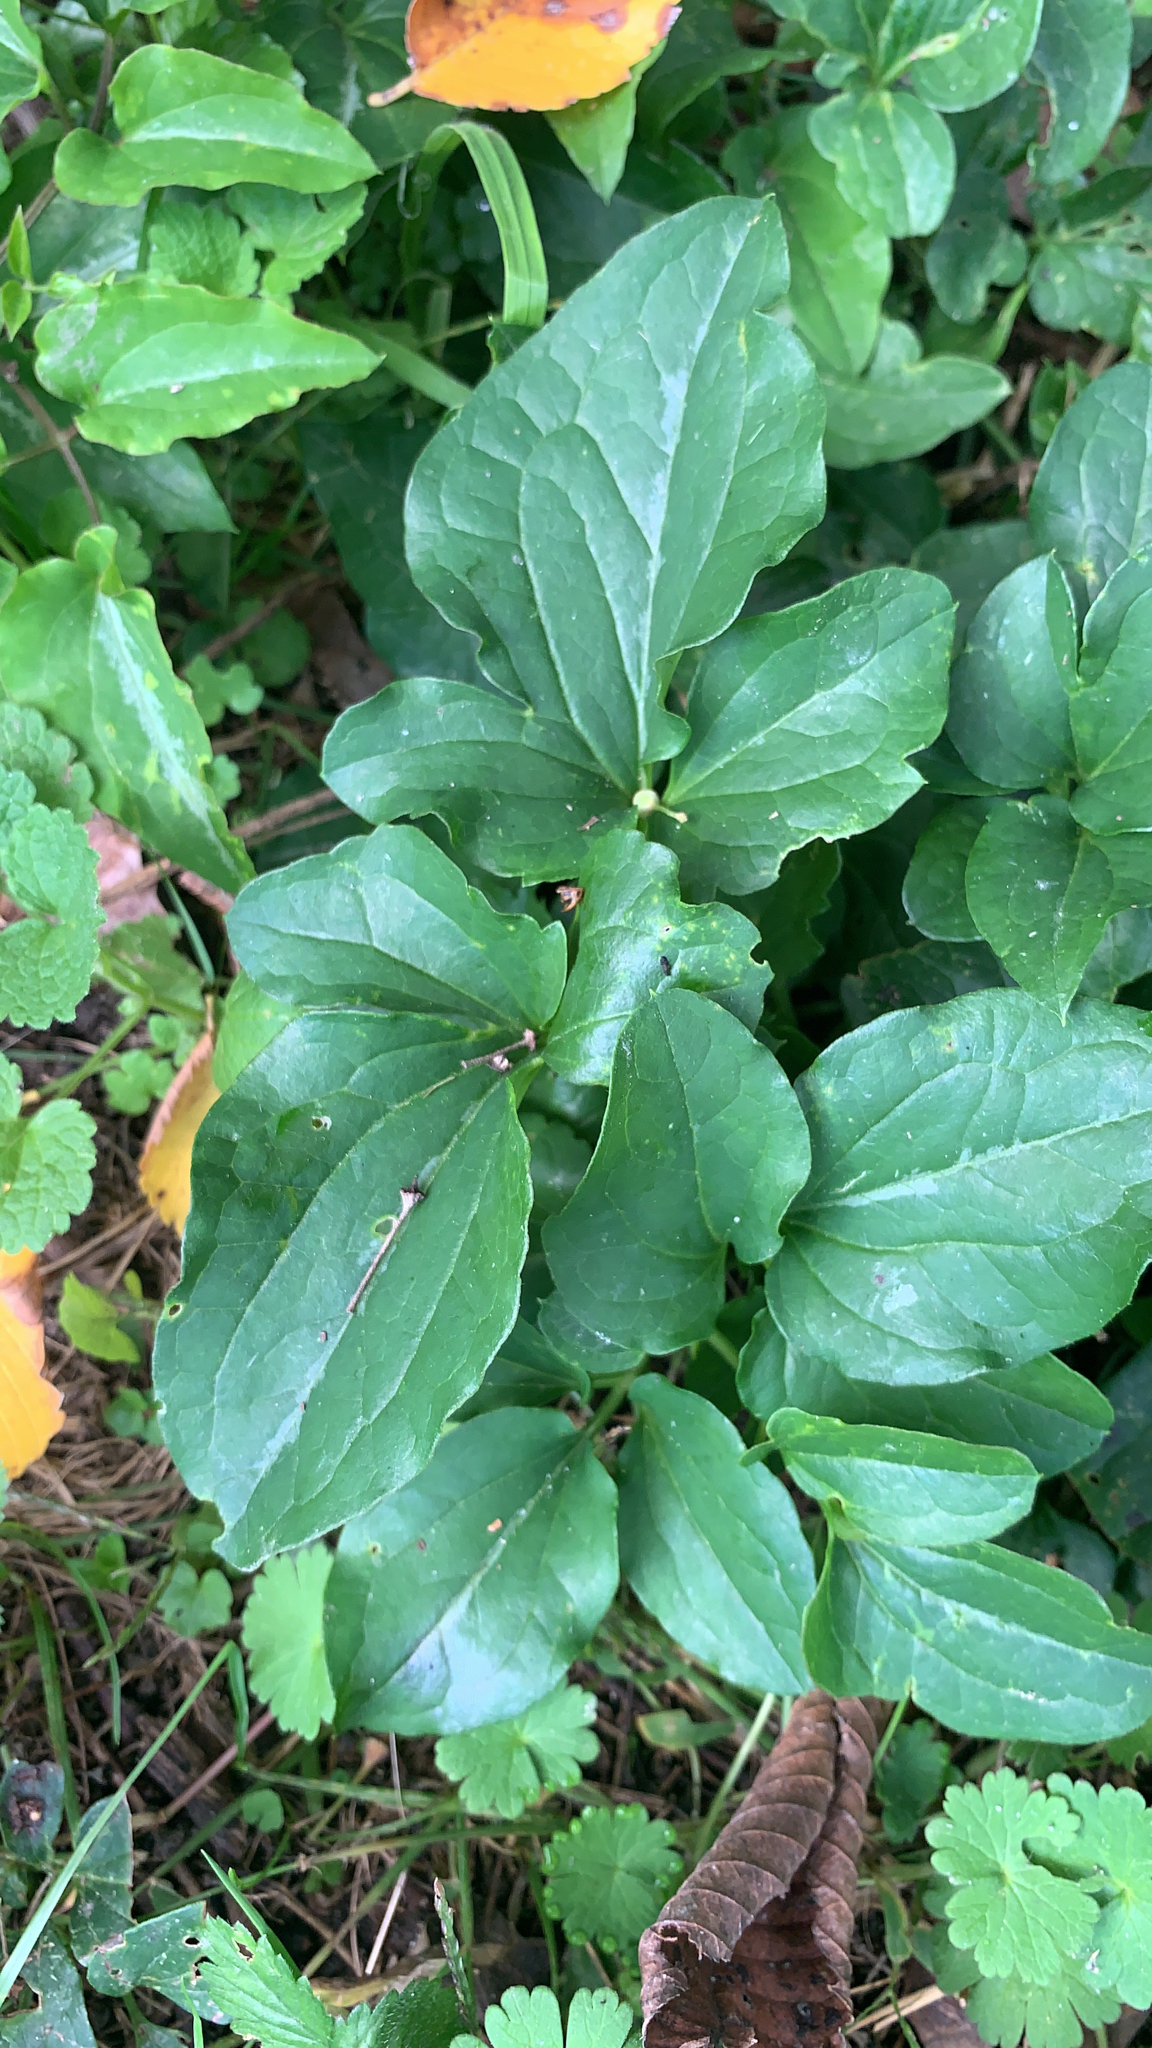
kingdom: Plantae
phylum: Tracheophyta
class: Magnoliopsida
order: Ranunculales
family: Ranunculaceae
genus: Clematis
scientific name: Clematis terniflora
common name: Sweet autumn clematis
